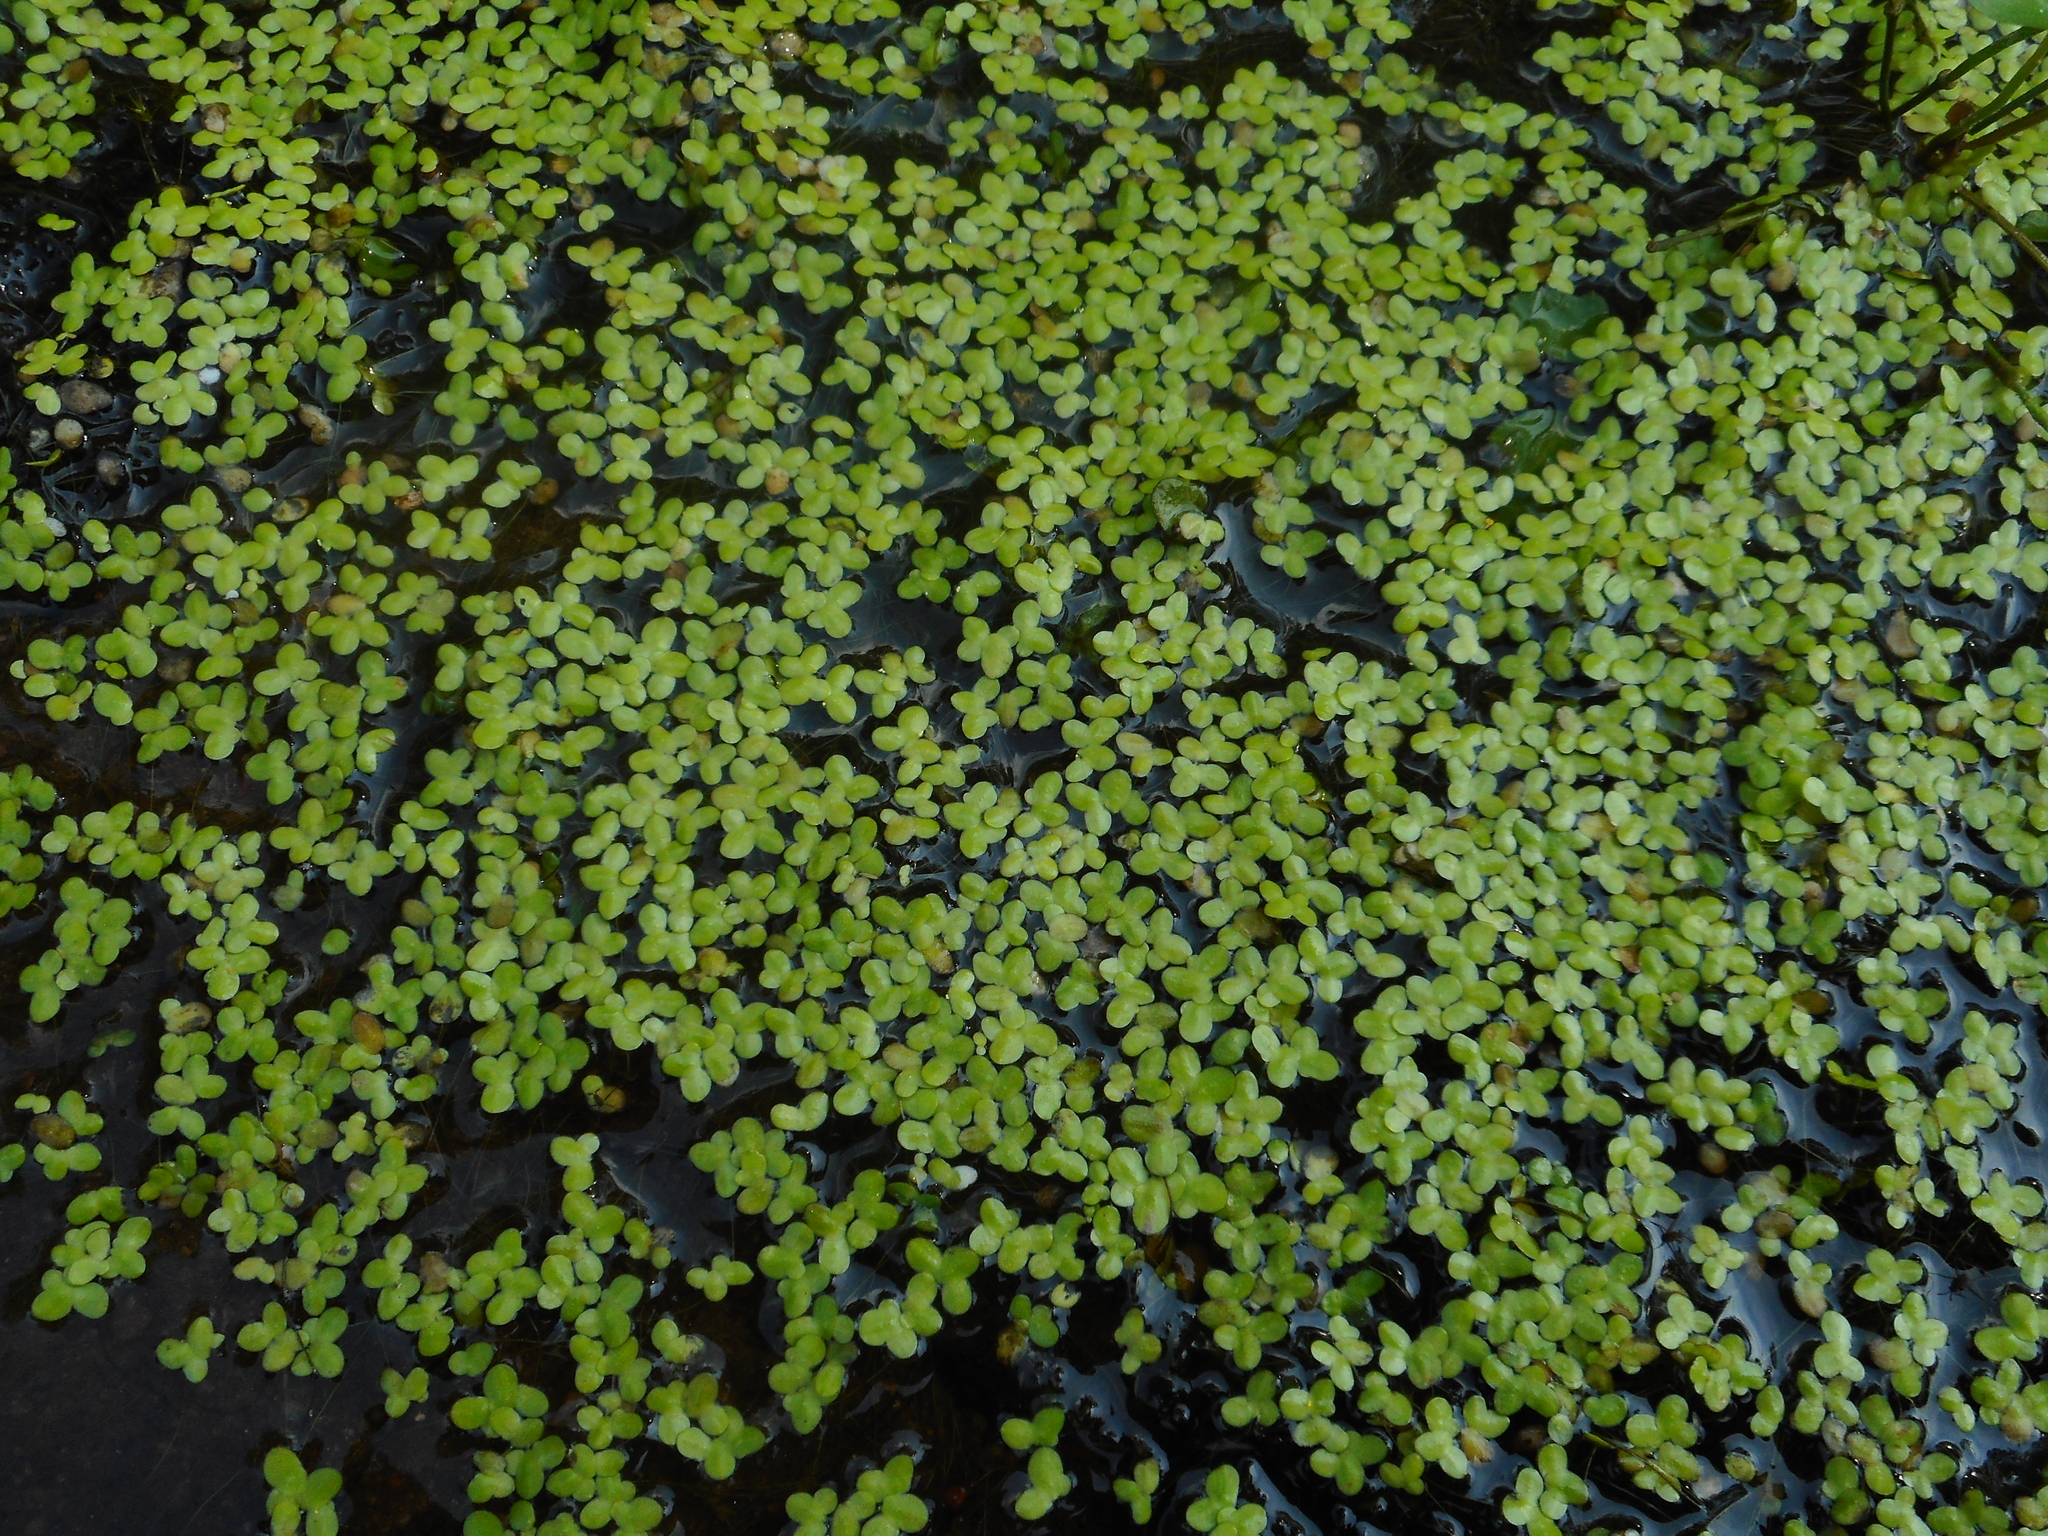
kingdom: Plantae
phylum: Tracheophyta
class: Liliopsida
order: Alismatales
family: Araceae
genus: Lemna
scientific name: Lemna
